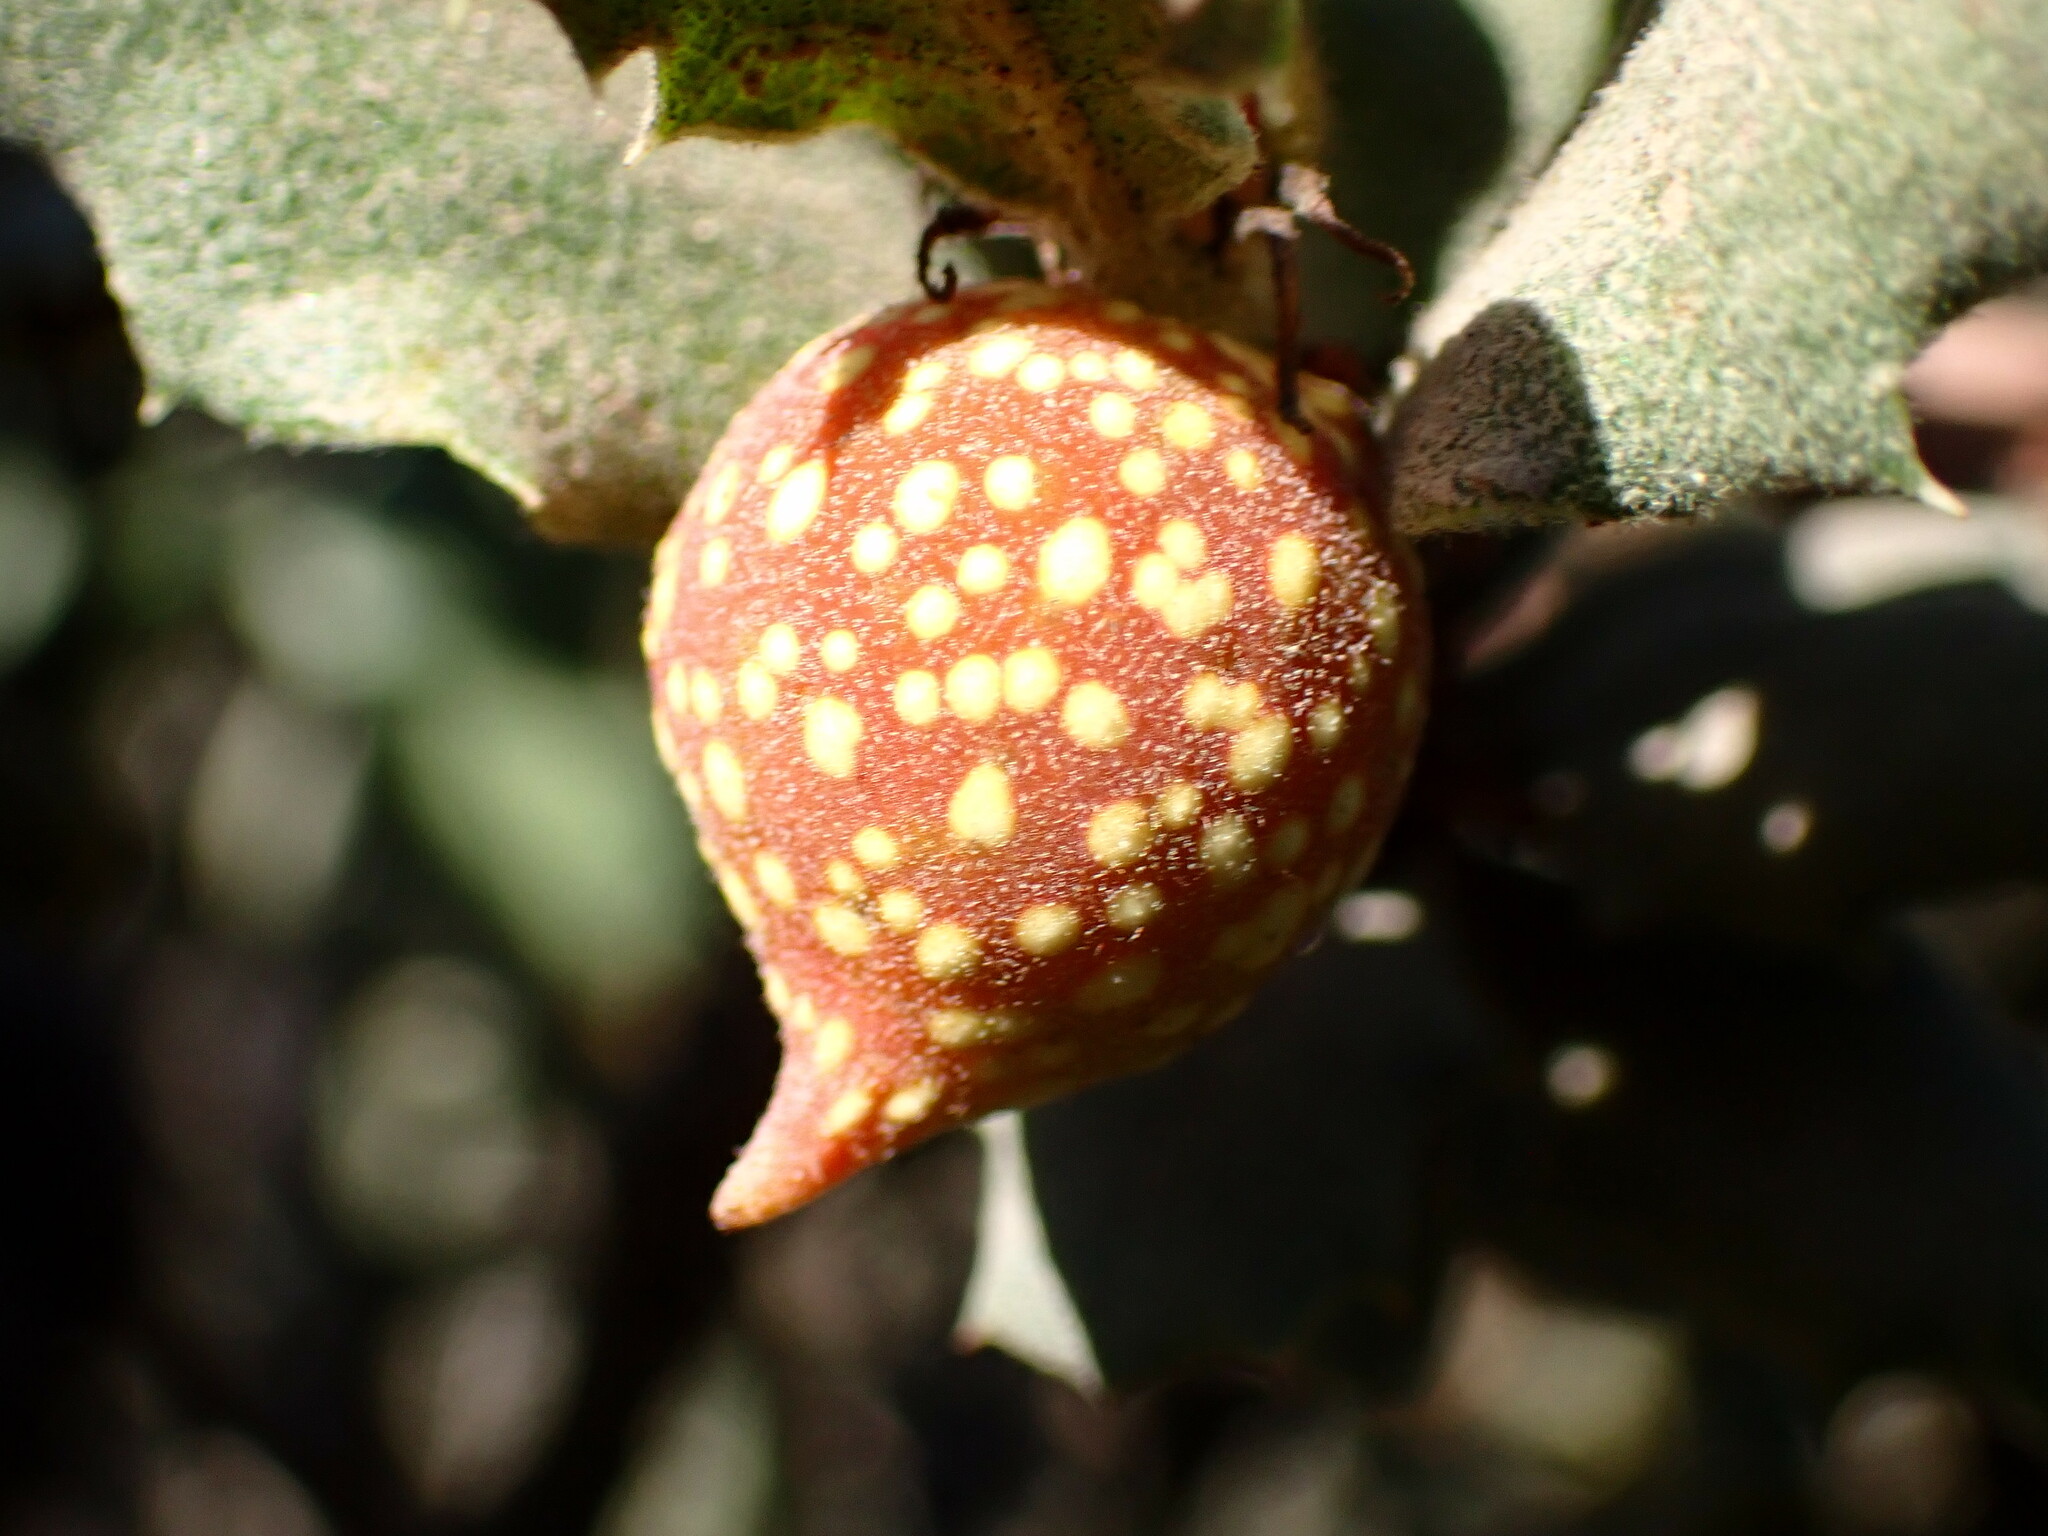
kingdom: Animalia
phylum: Arthropoda
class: Insecta
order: Hymenoptera
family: Cynipidae
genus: Burnettweldia
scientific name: Burnettweldia
